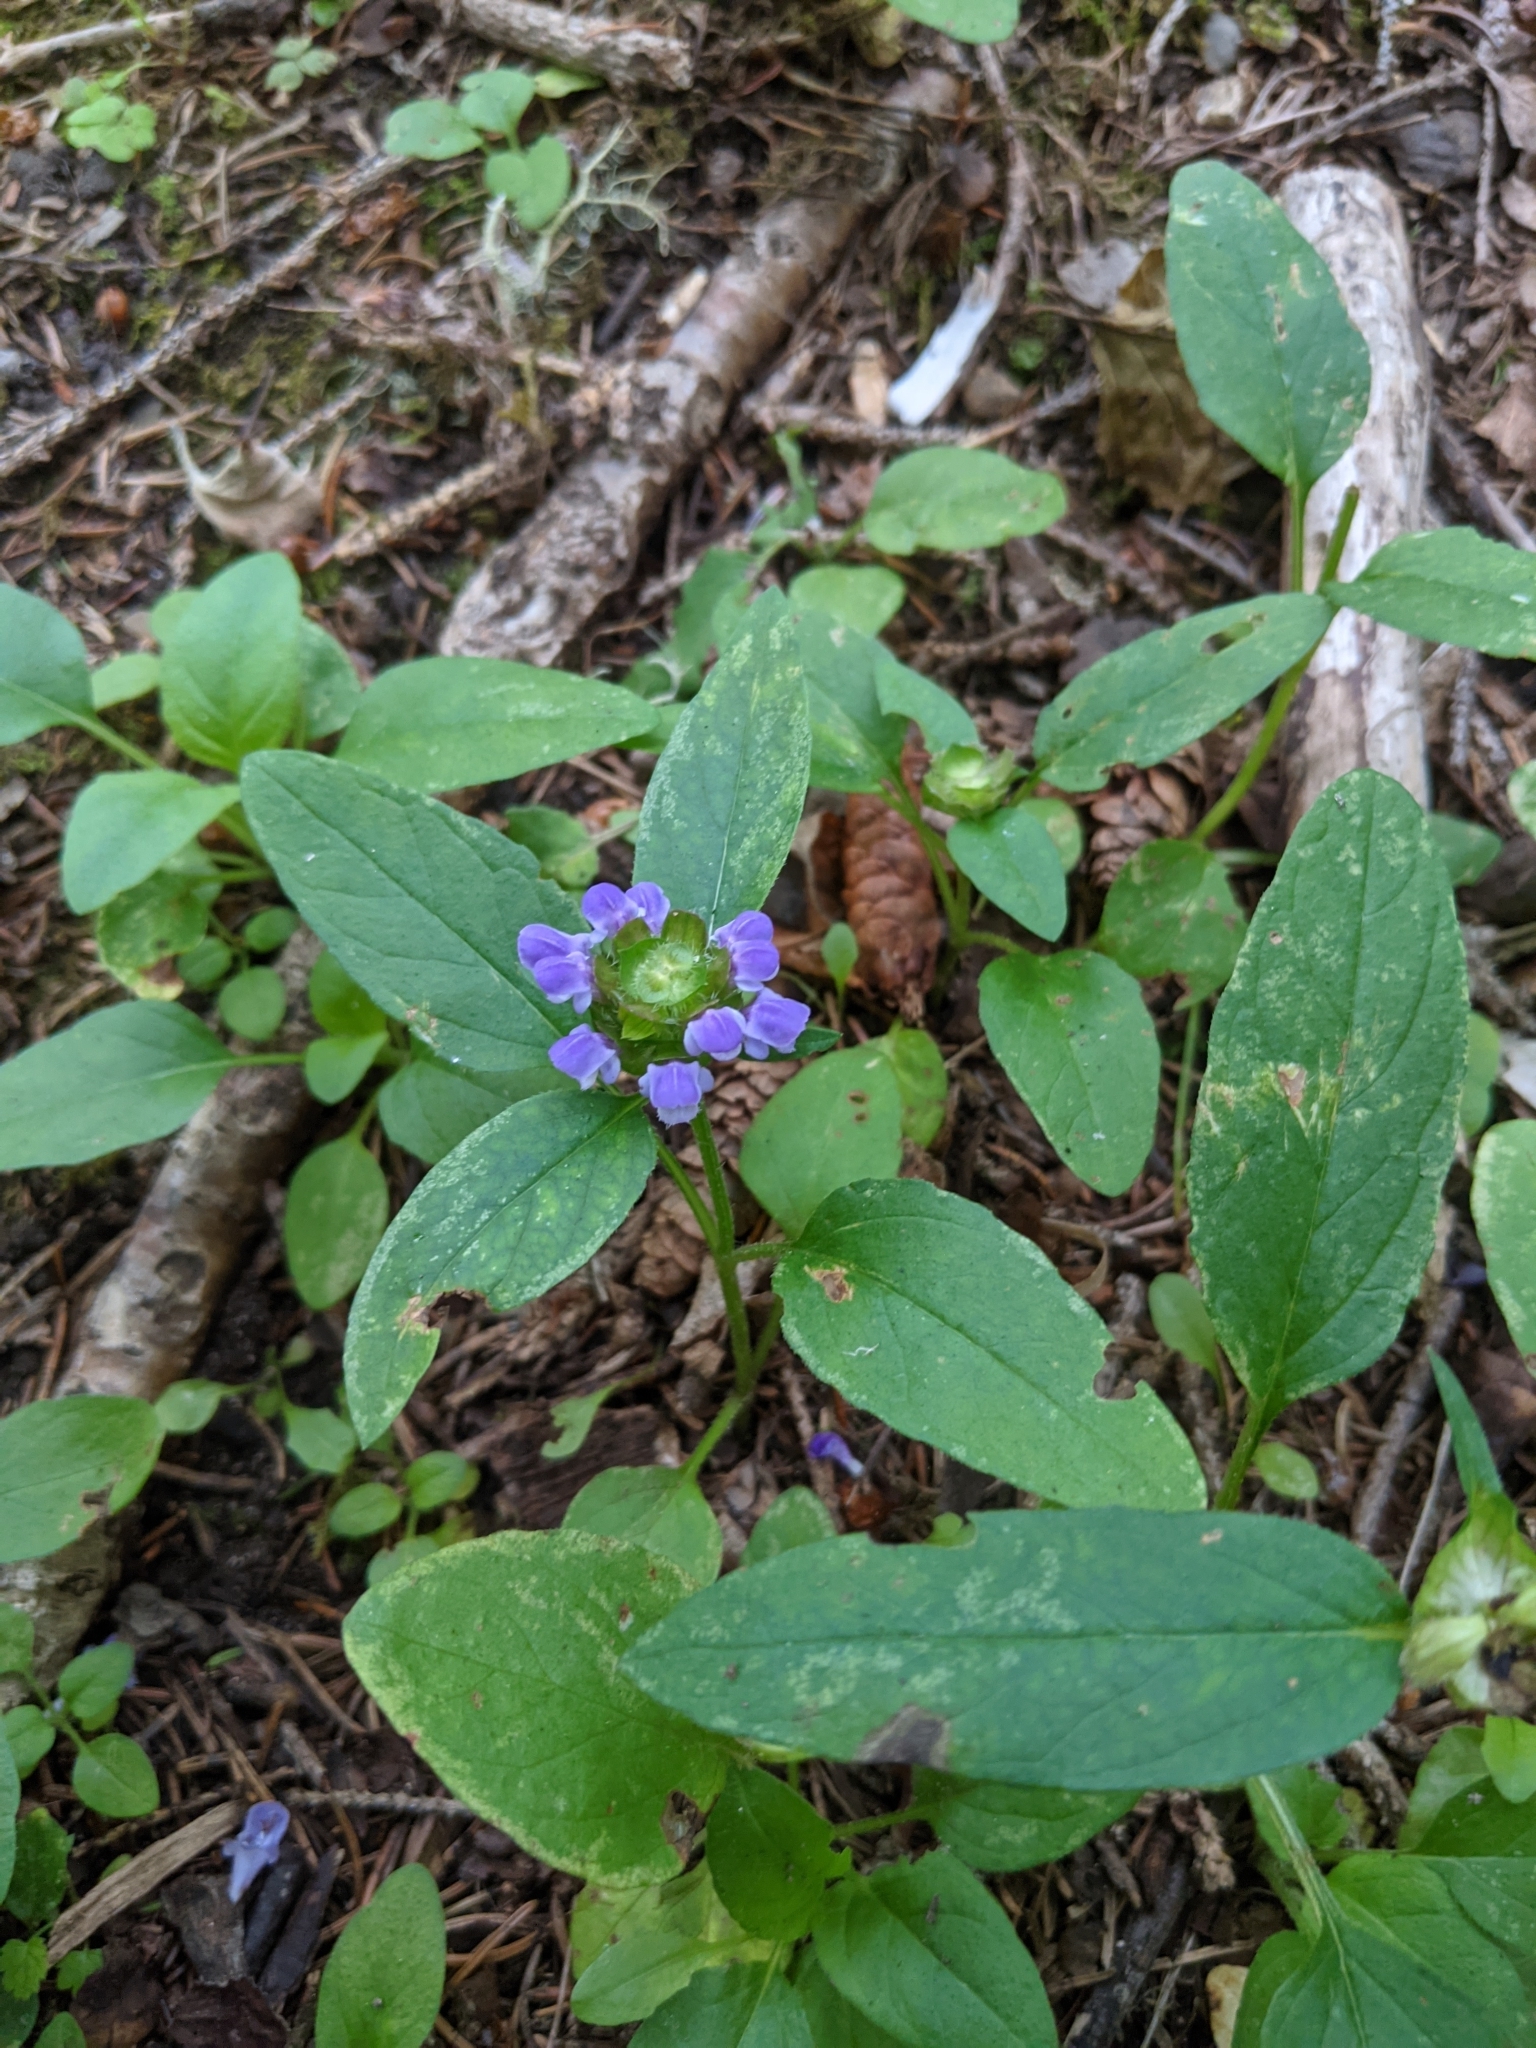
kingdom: Plantae
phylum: Tracheophyta
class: Magnoliopsida
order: Lamiales
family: Lamiaceae
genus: Prunella
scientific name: Prunella vulgaris
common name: Heal-all
